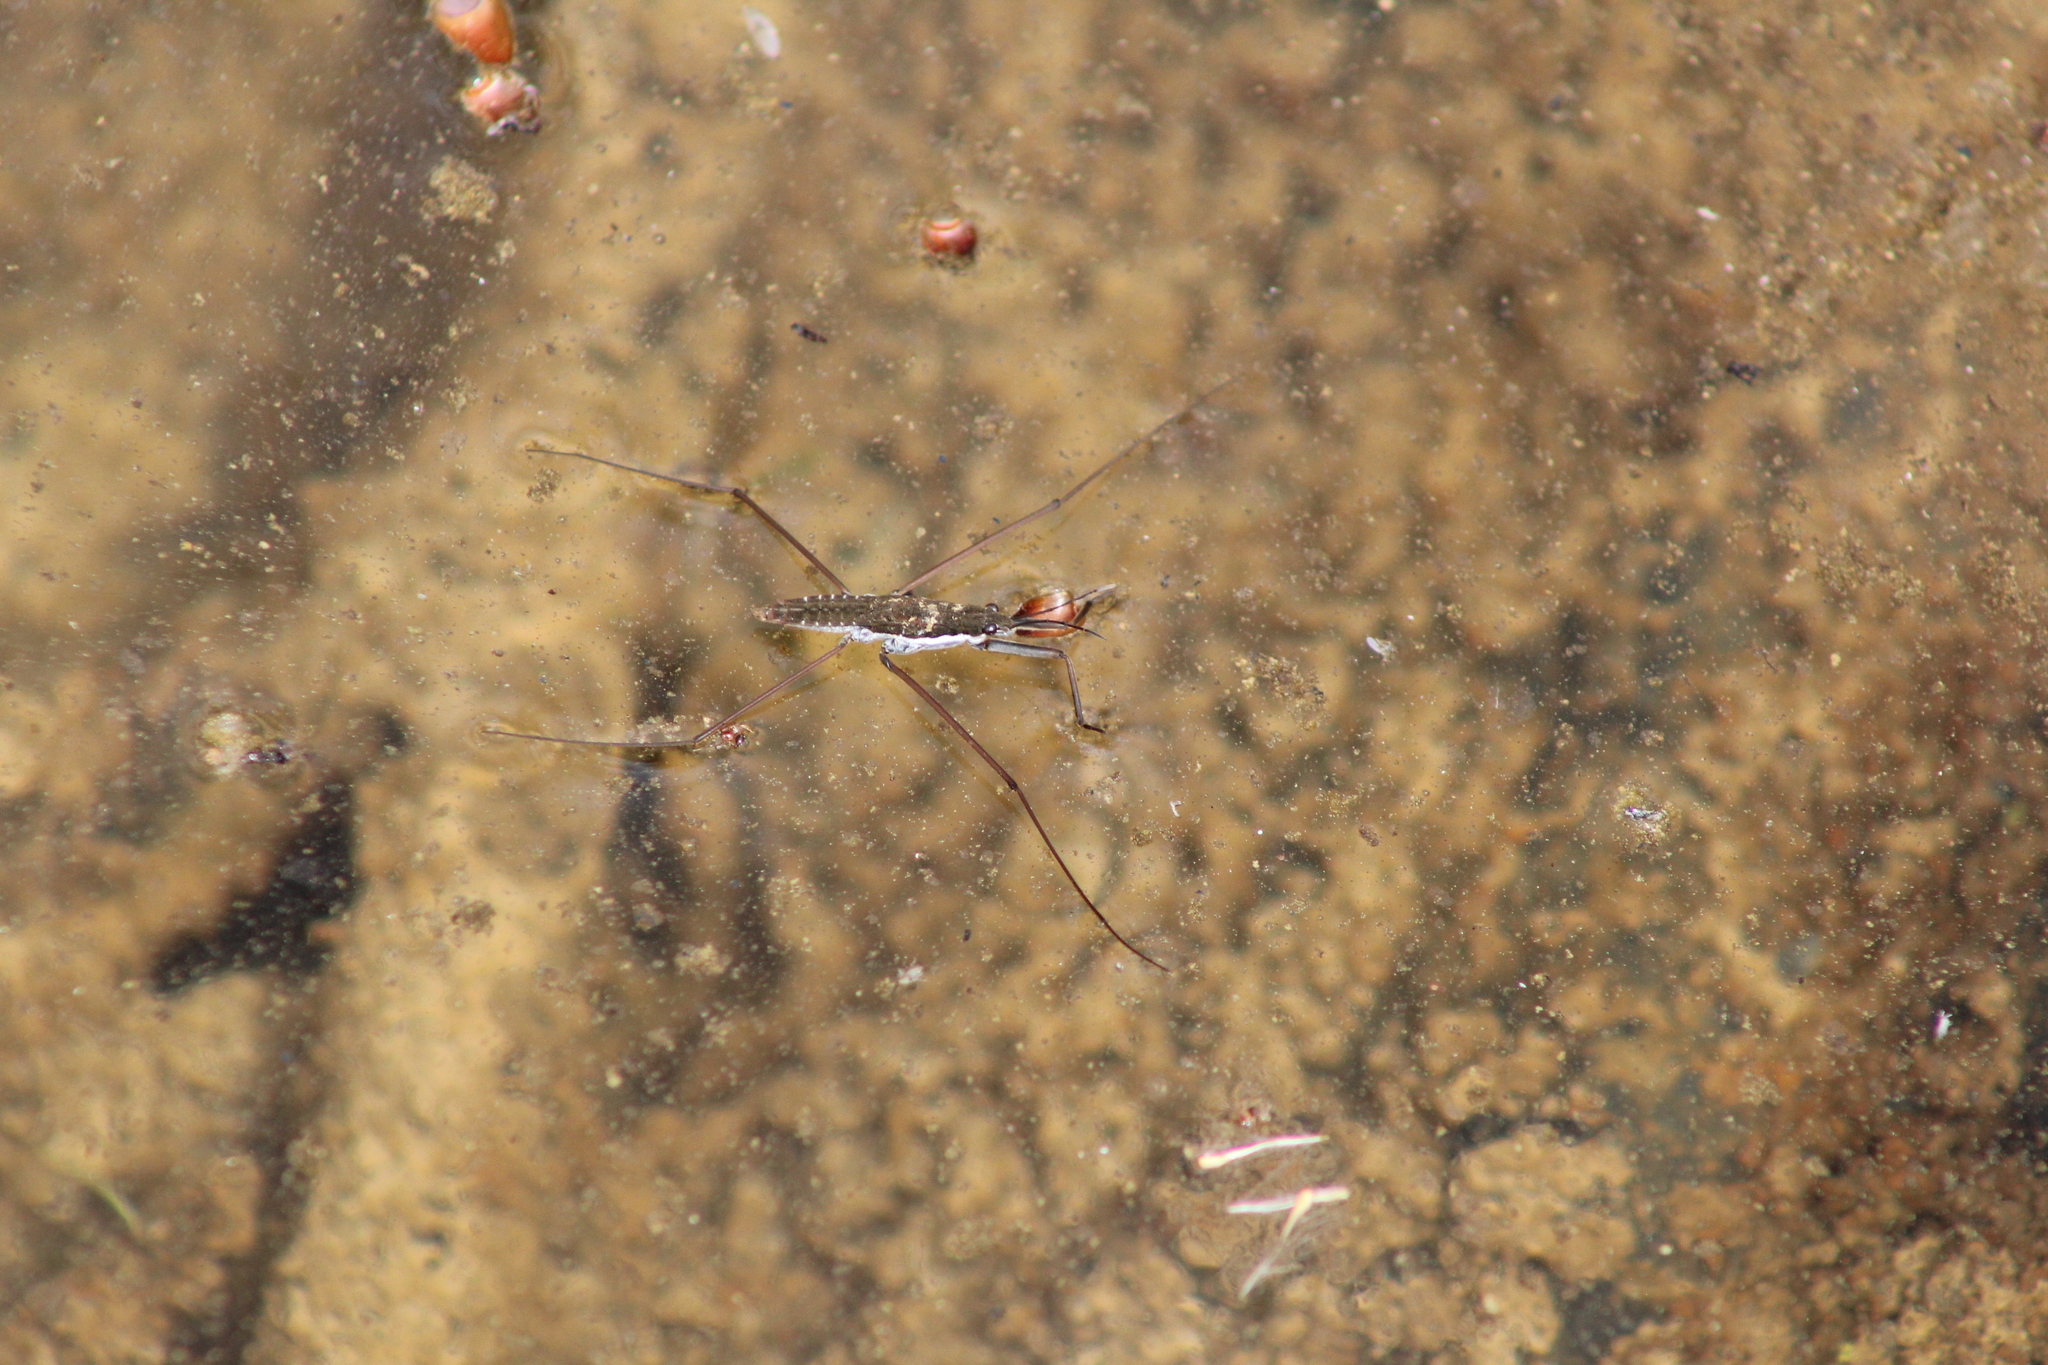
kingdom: Animalia
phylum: Arthropoda
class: Insecta
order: Hemiptera
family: Gerridae
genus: Aquarius
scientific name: Aquarius remigis
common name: Common water strider
